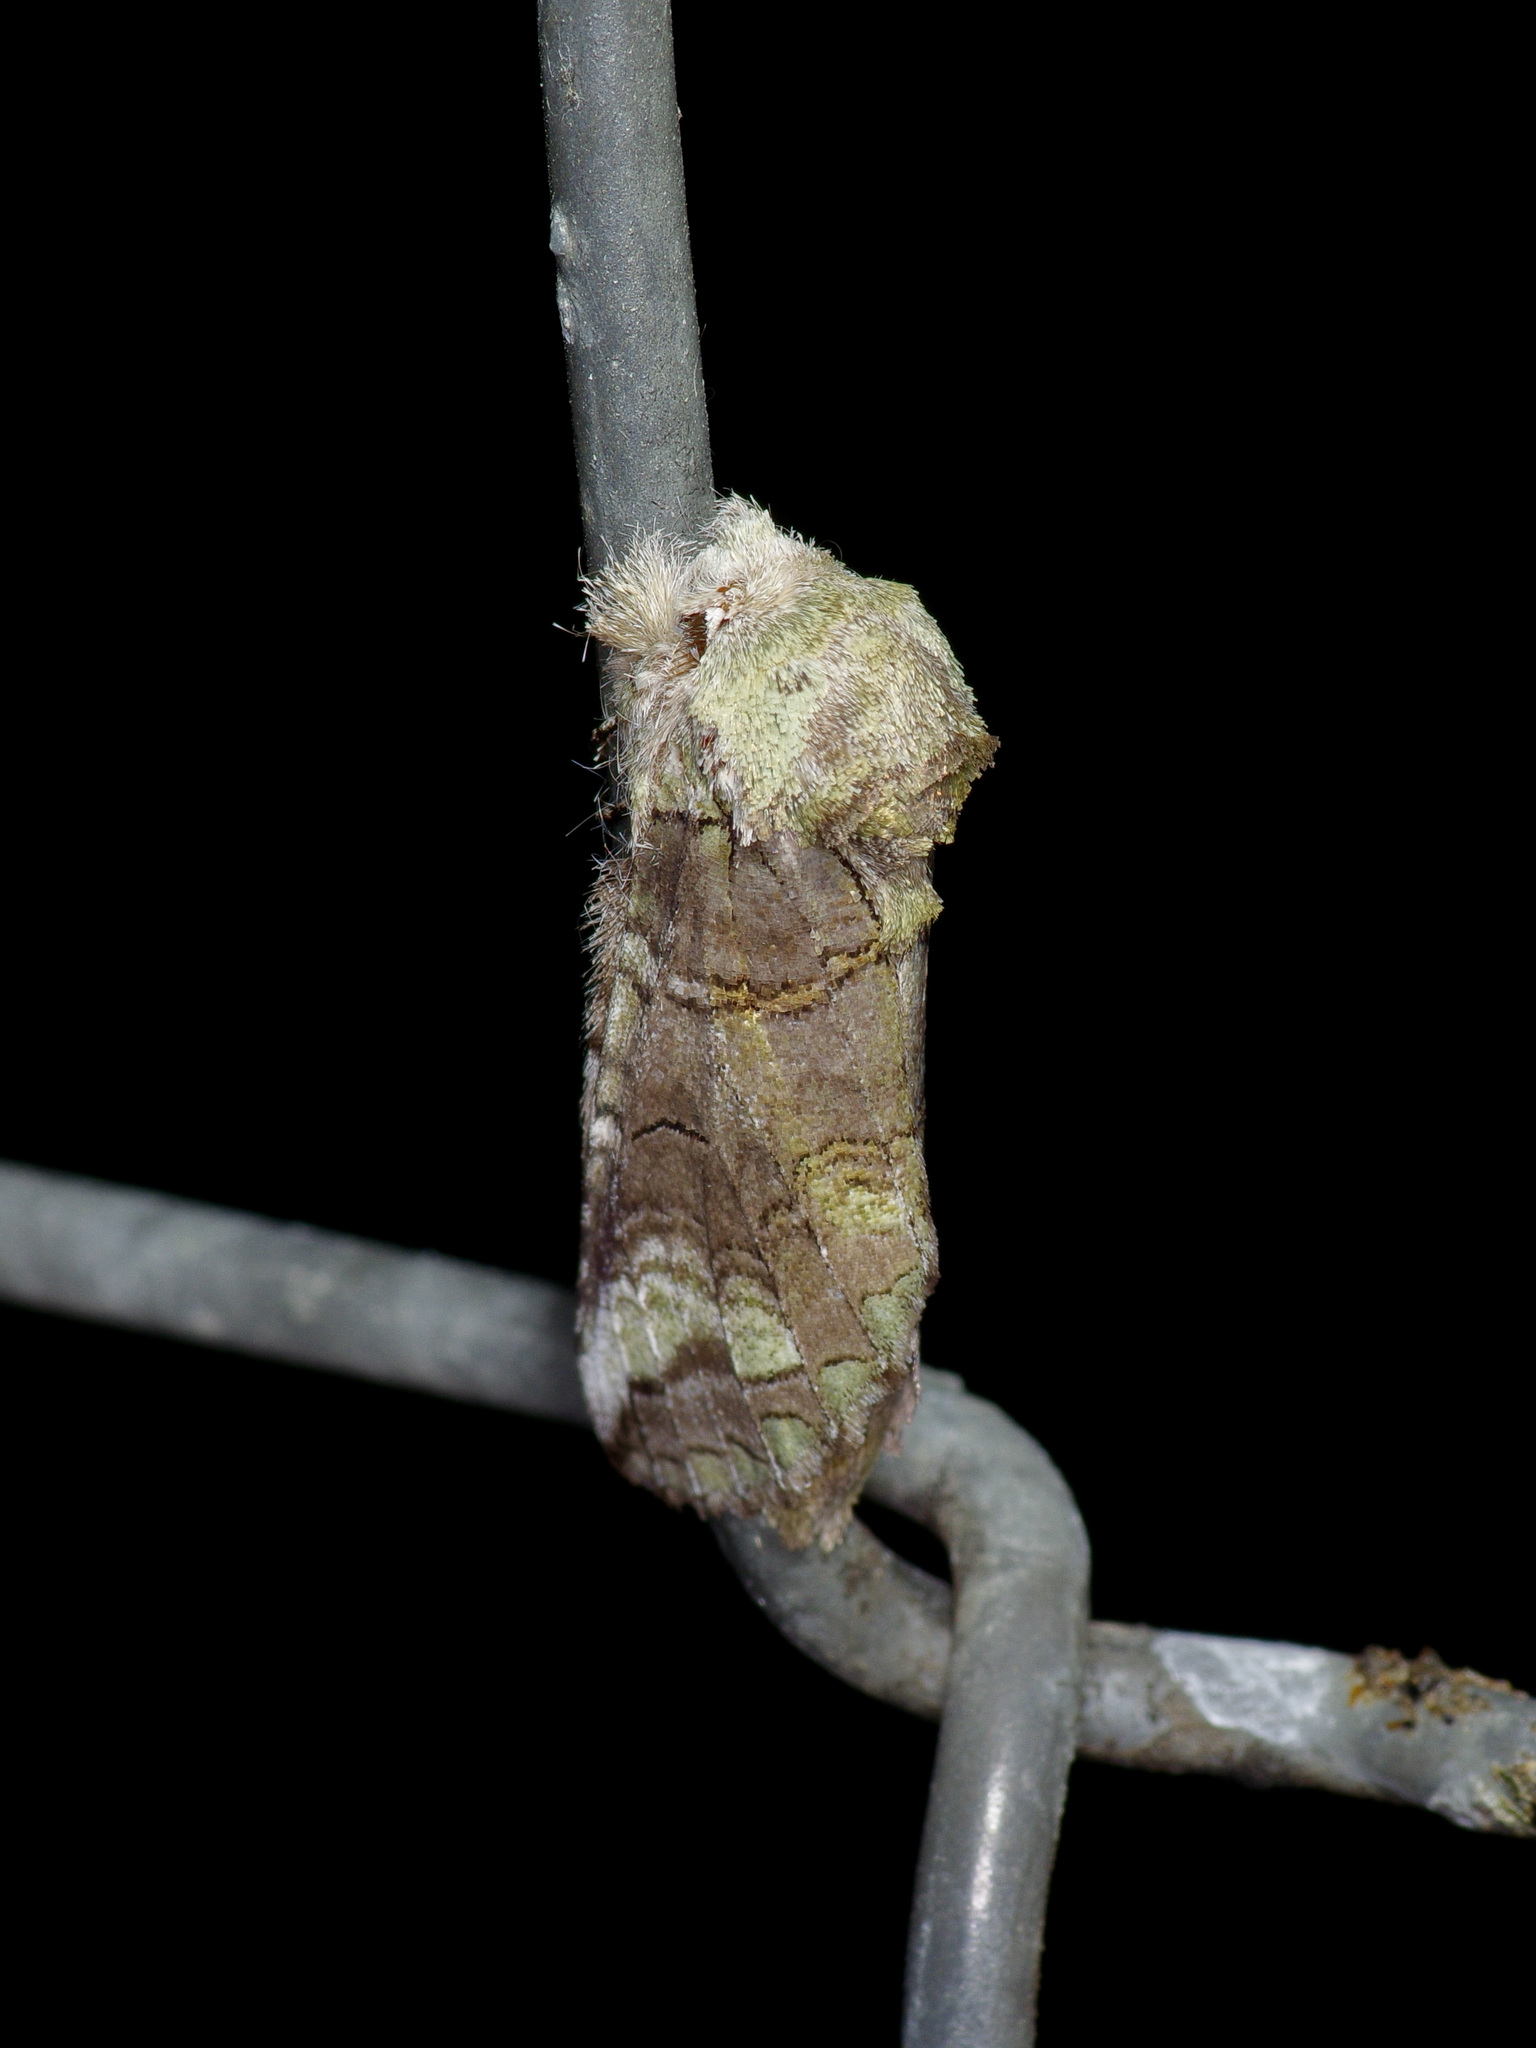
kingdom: Animalia
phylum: Arthropoda
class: Insecta
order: Lepidoptera
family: Notodontidae
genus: Heterocampa
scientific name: Heterocampa astartoides
